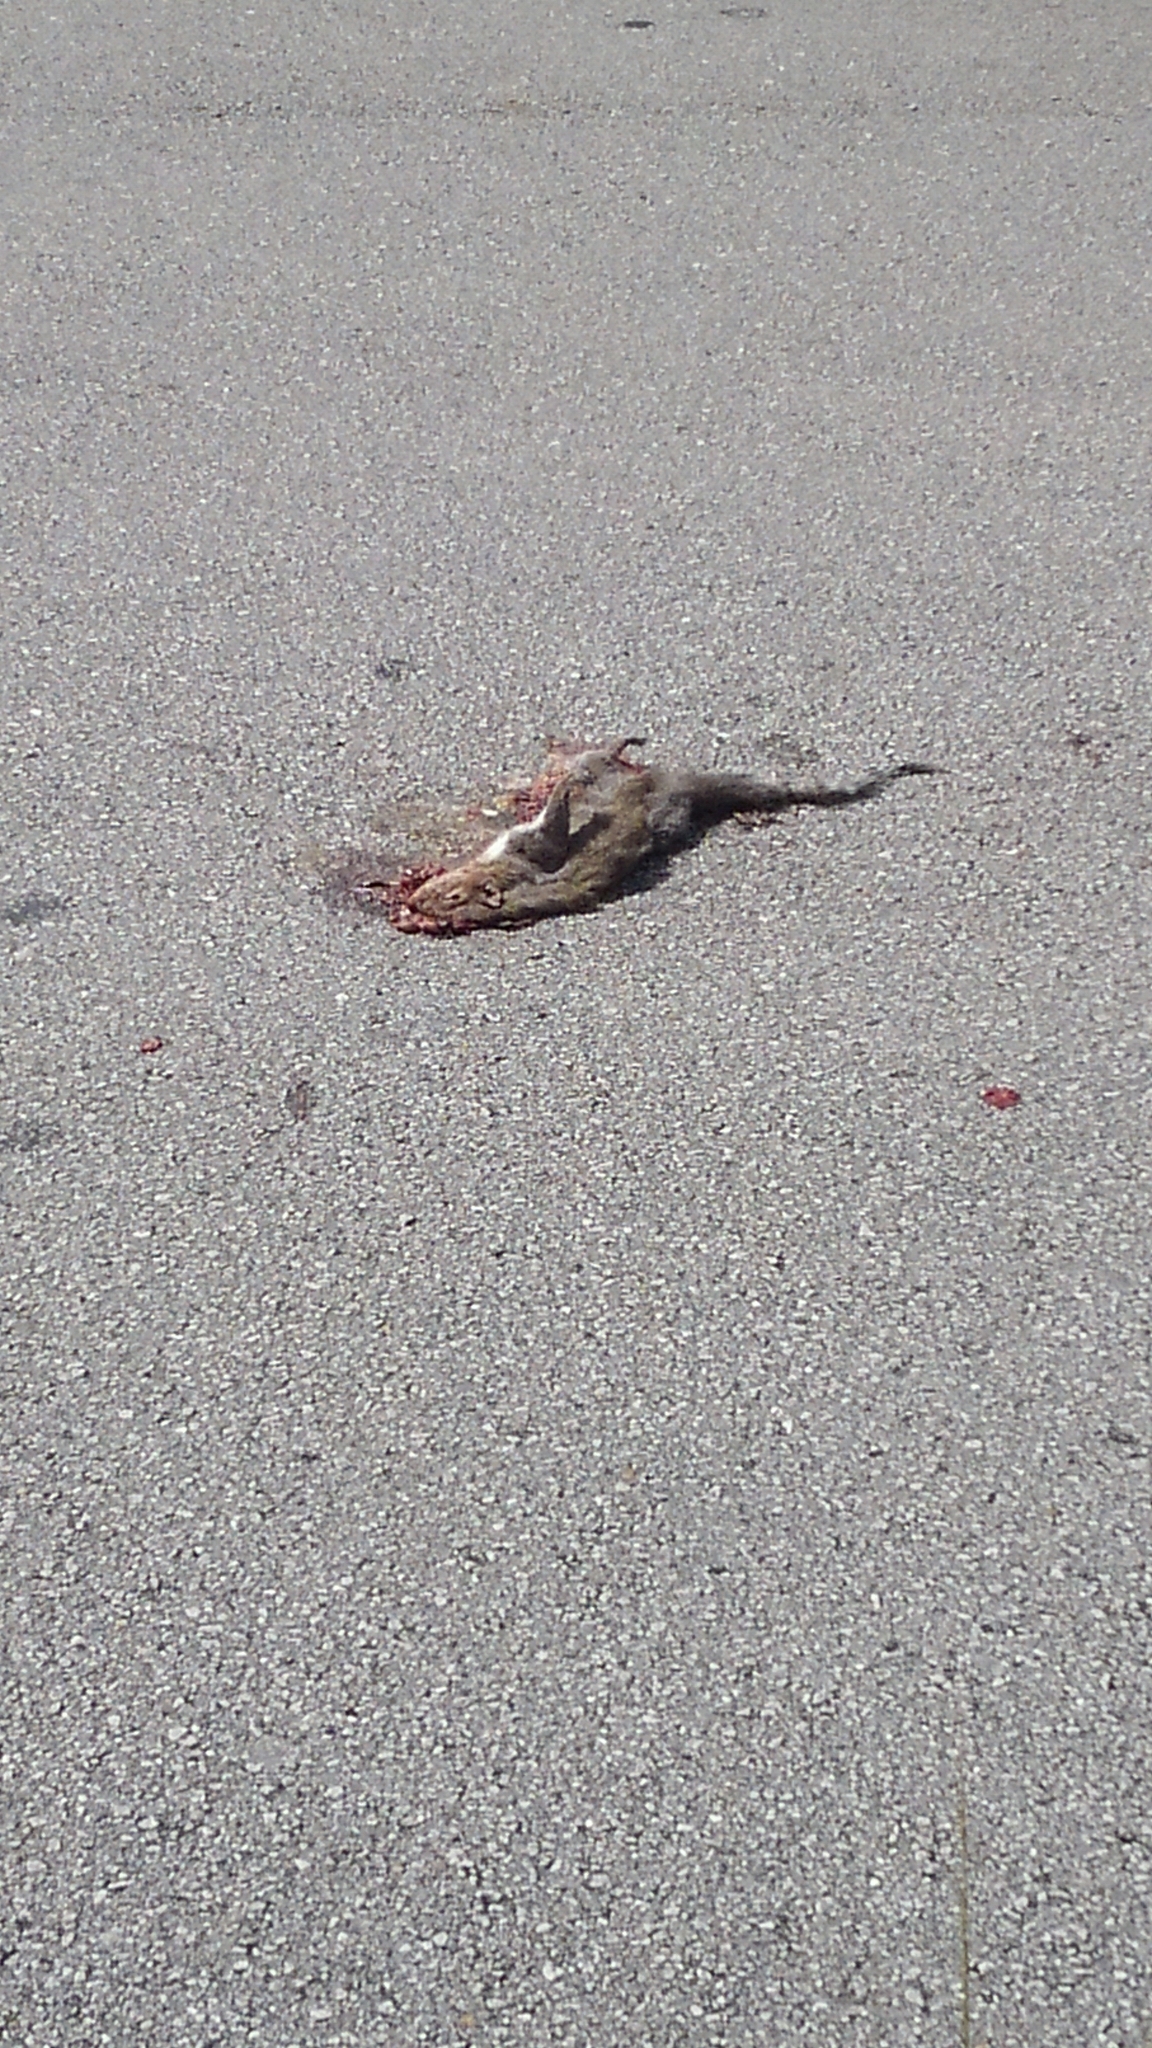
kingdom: Animalia
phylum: Chordata
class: Mammalia
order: Rodentia
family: Sciuridae
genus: Sciurus
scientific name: Sciurus carolinensis
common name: Eastern gray squirrel
